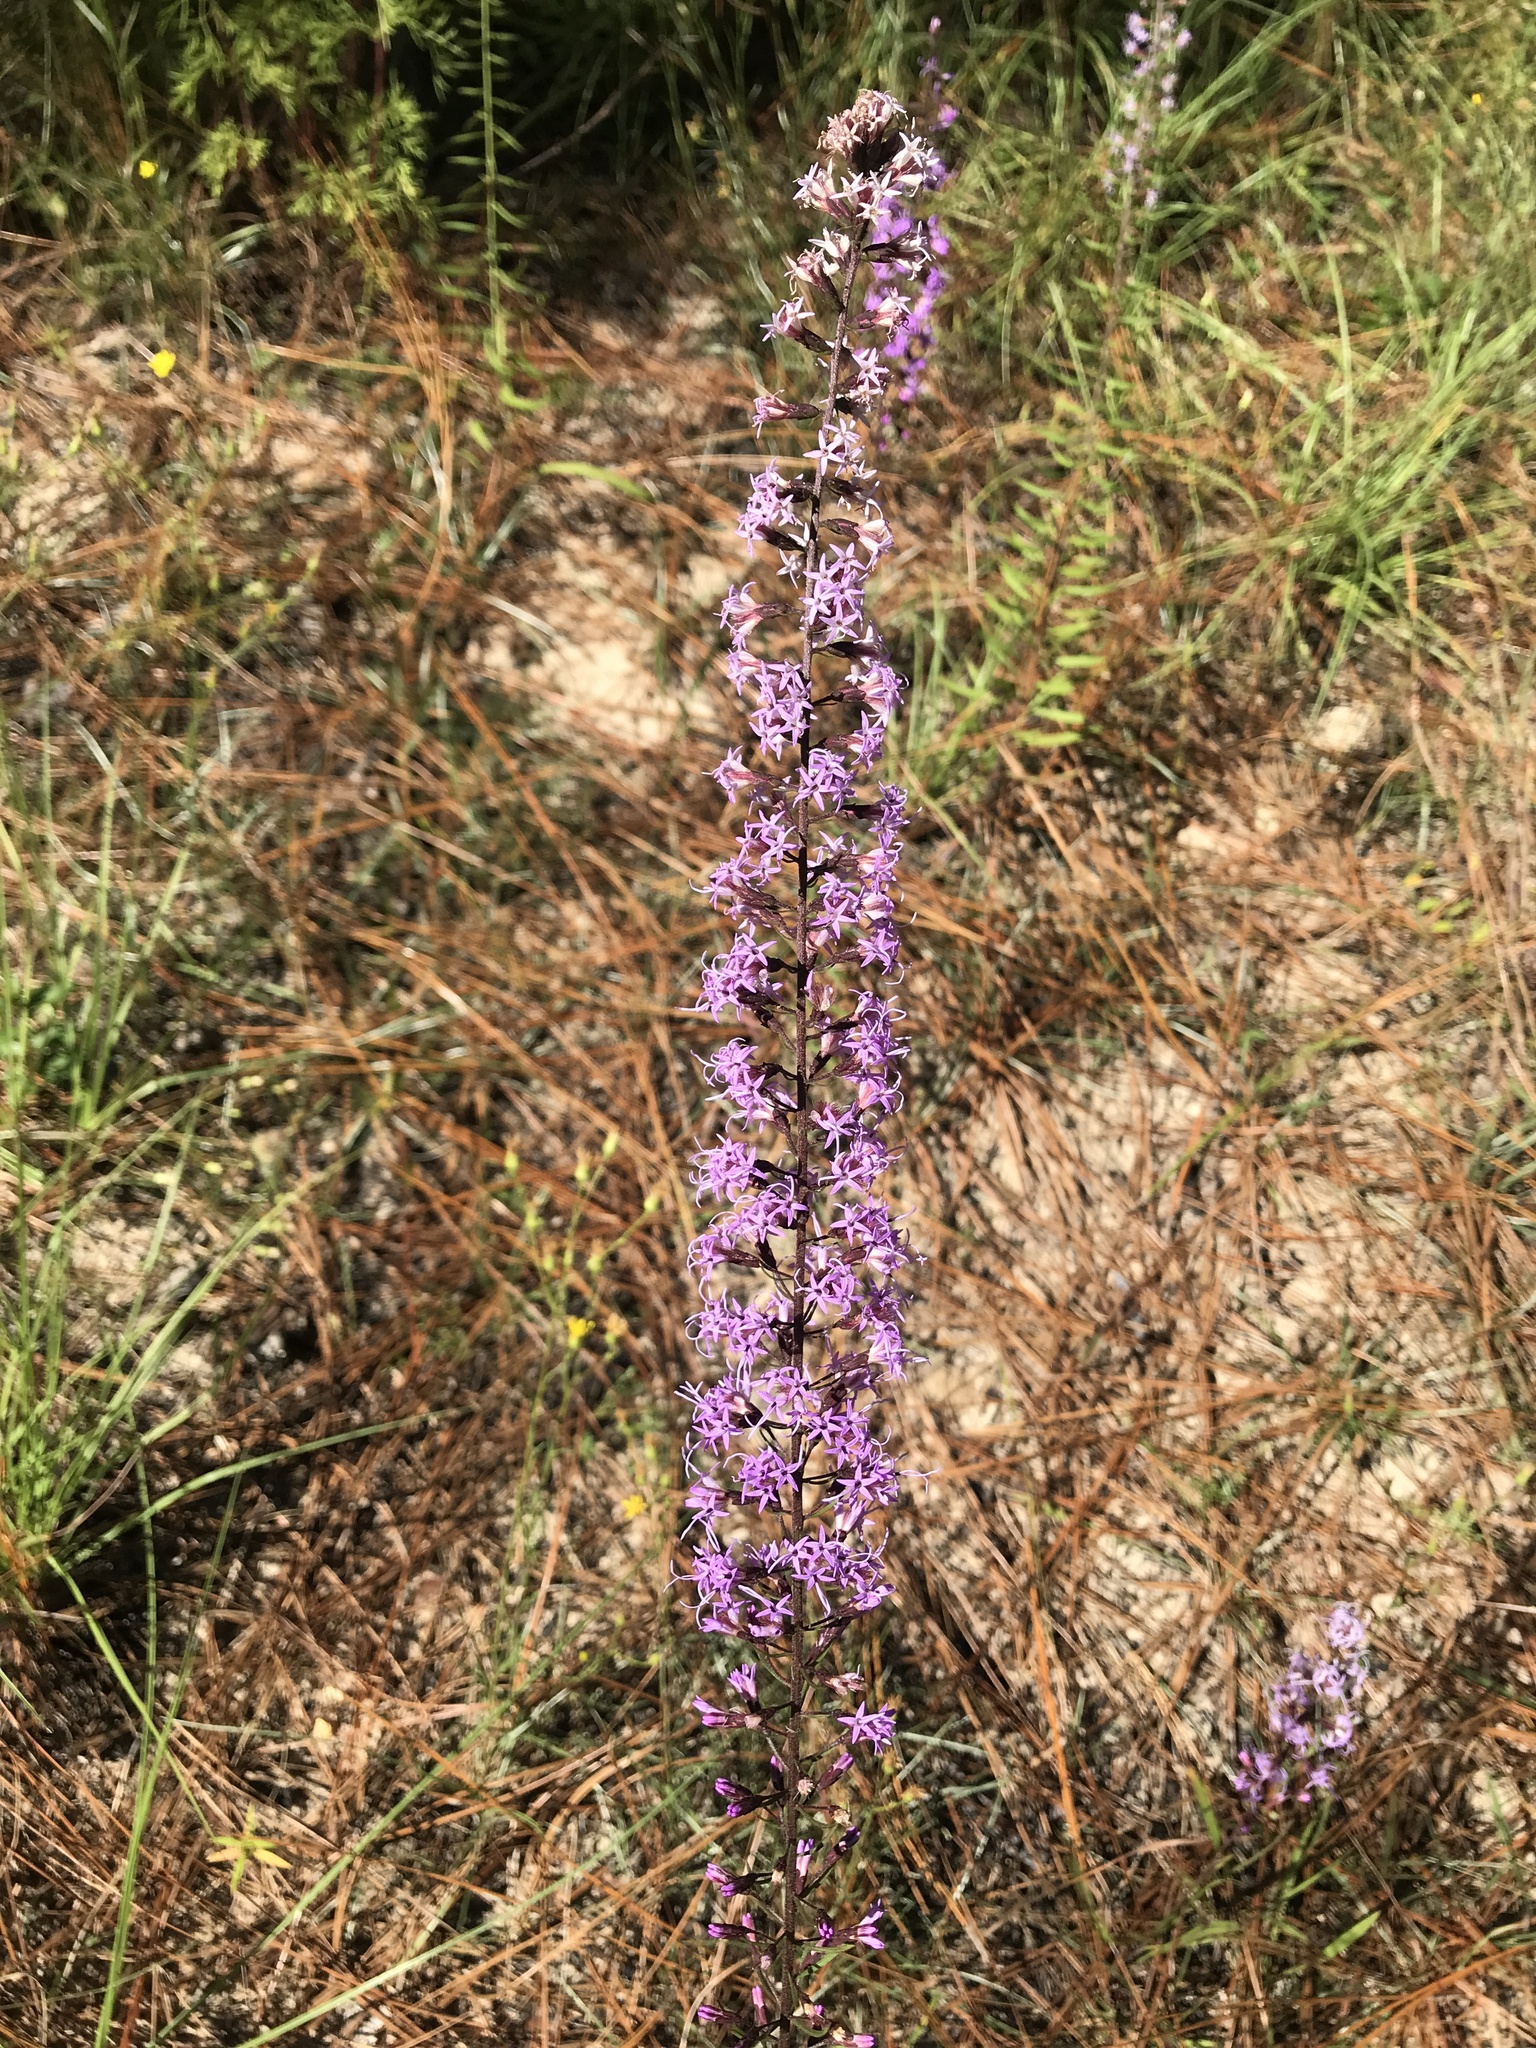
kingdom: Plantae
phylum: Tracheophyta
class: Magnoliopsida
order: Asterales
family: Asteraceae
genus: Liatris
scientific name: Liatris gracilis
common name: Slender gayfeather
